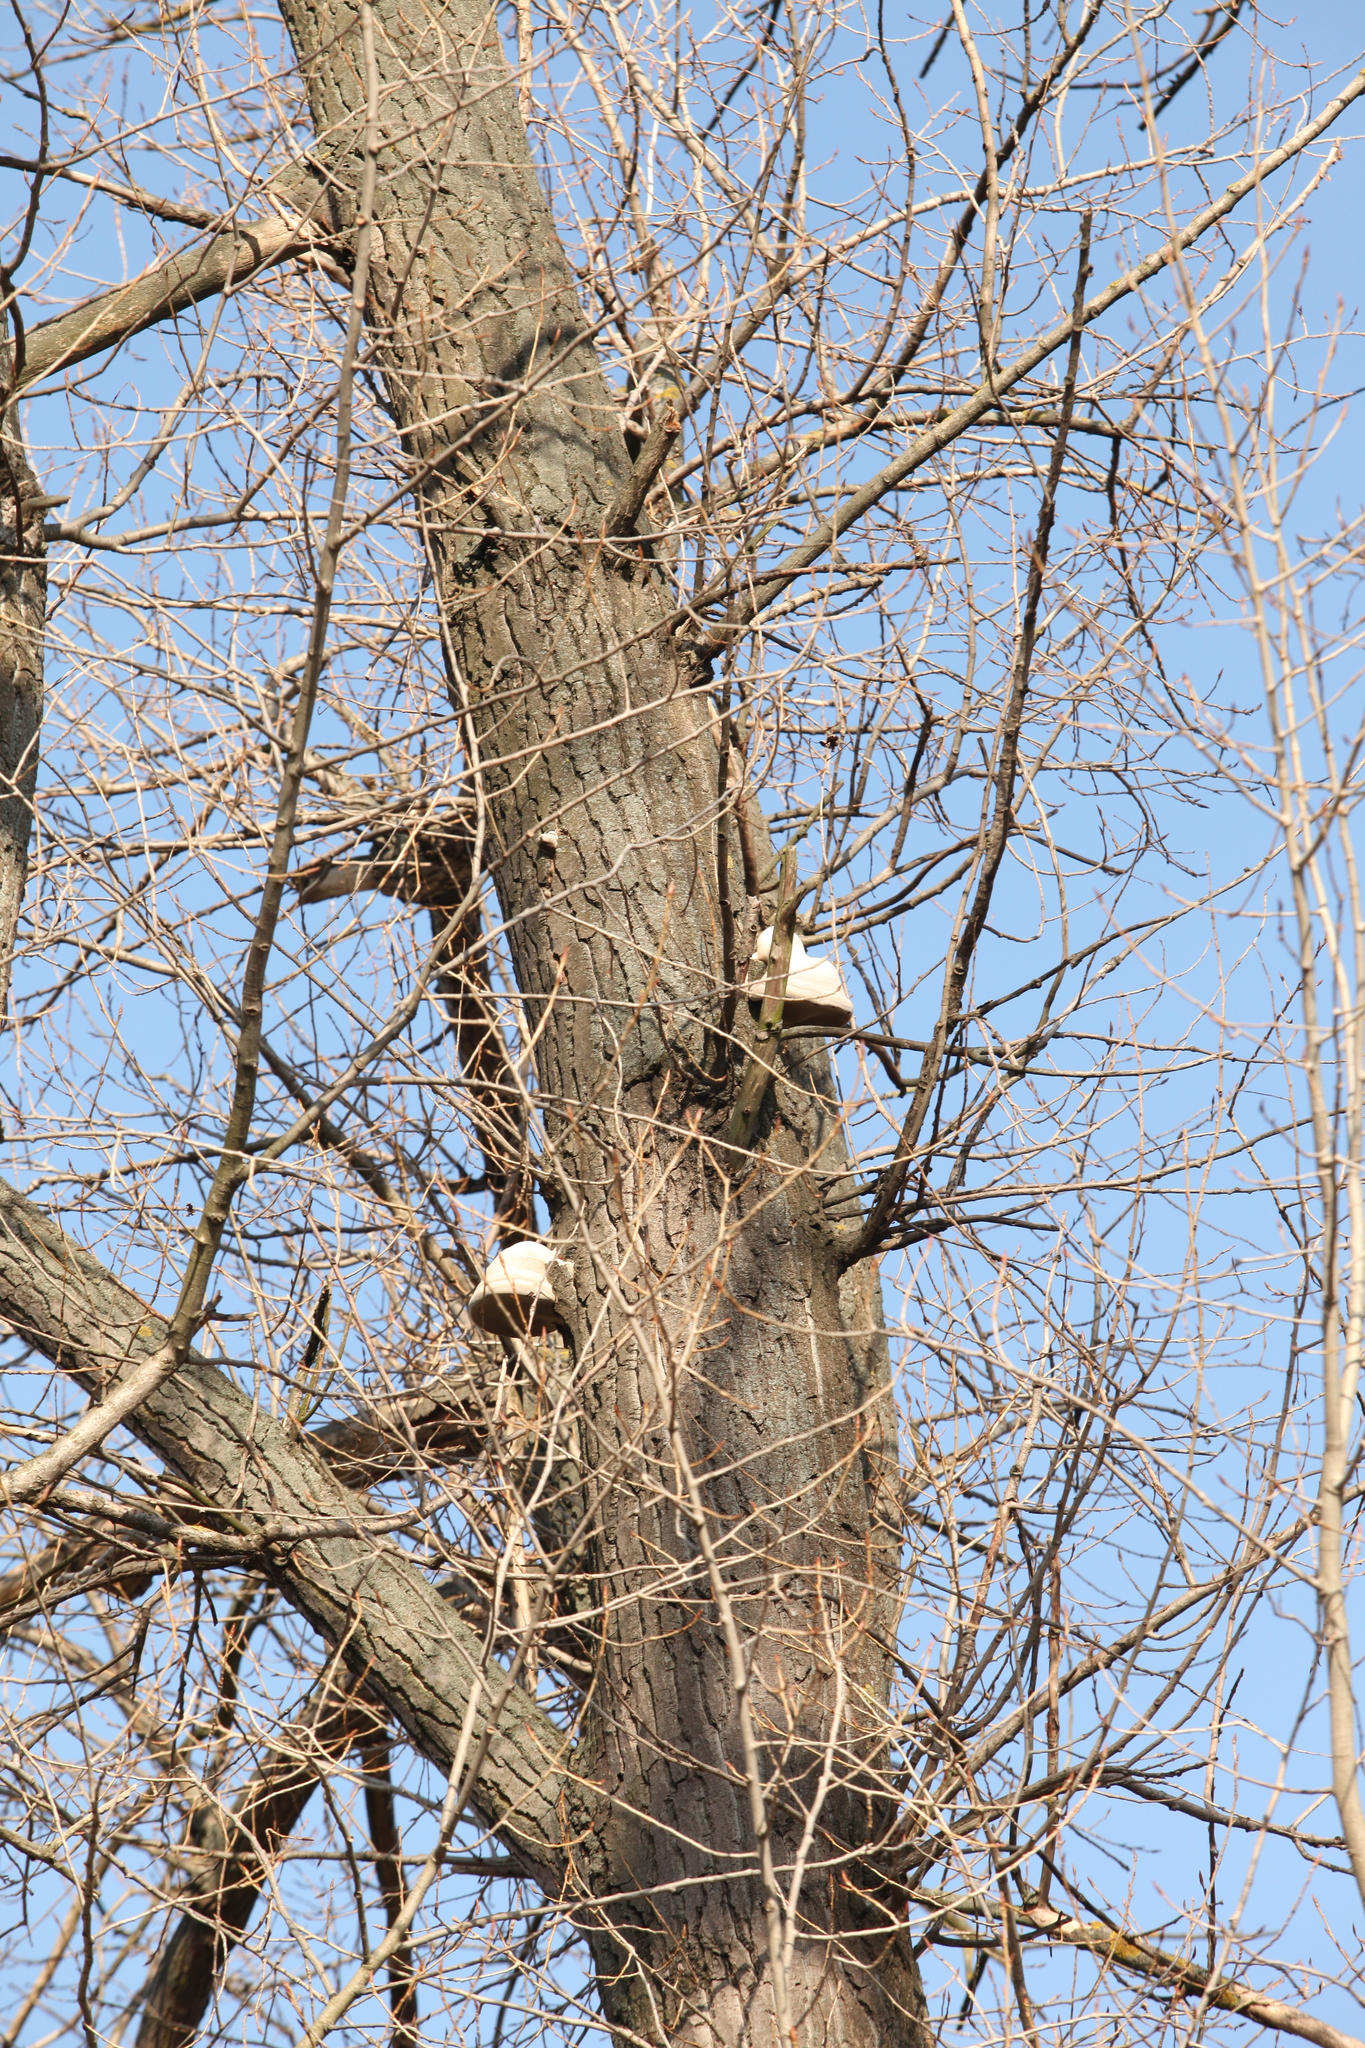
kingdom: Fungi
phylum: Basidiomycota
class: Agaricomycetes
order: Polyporales
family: Polyporaceae
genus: Fomes
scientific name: Fomes fomentarius
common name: Hoof fungus
